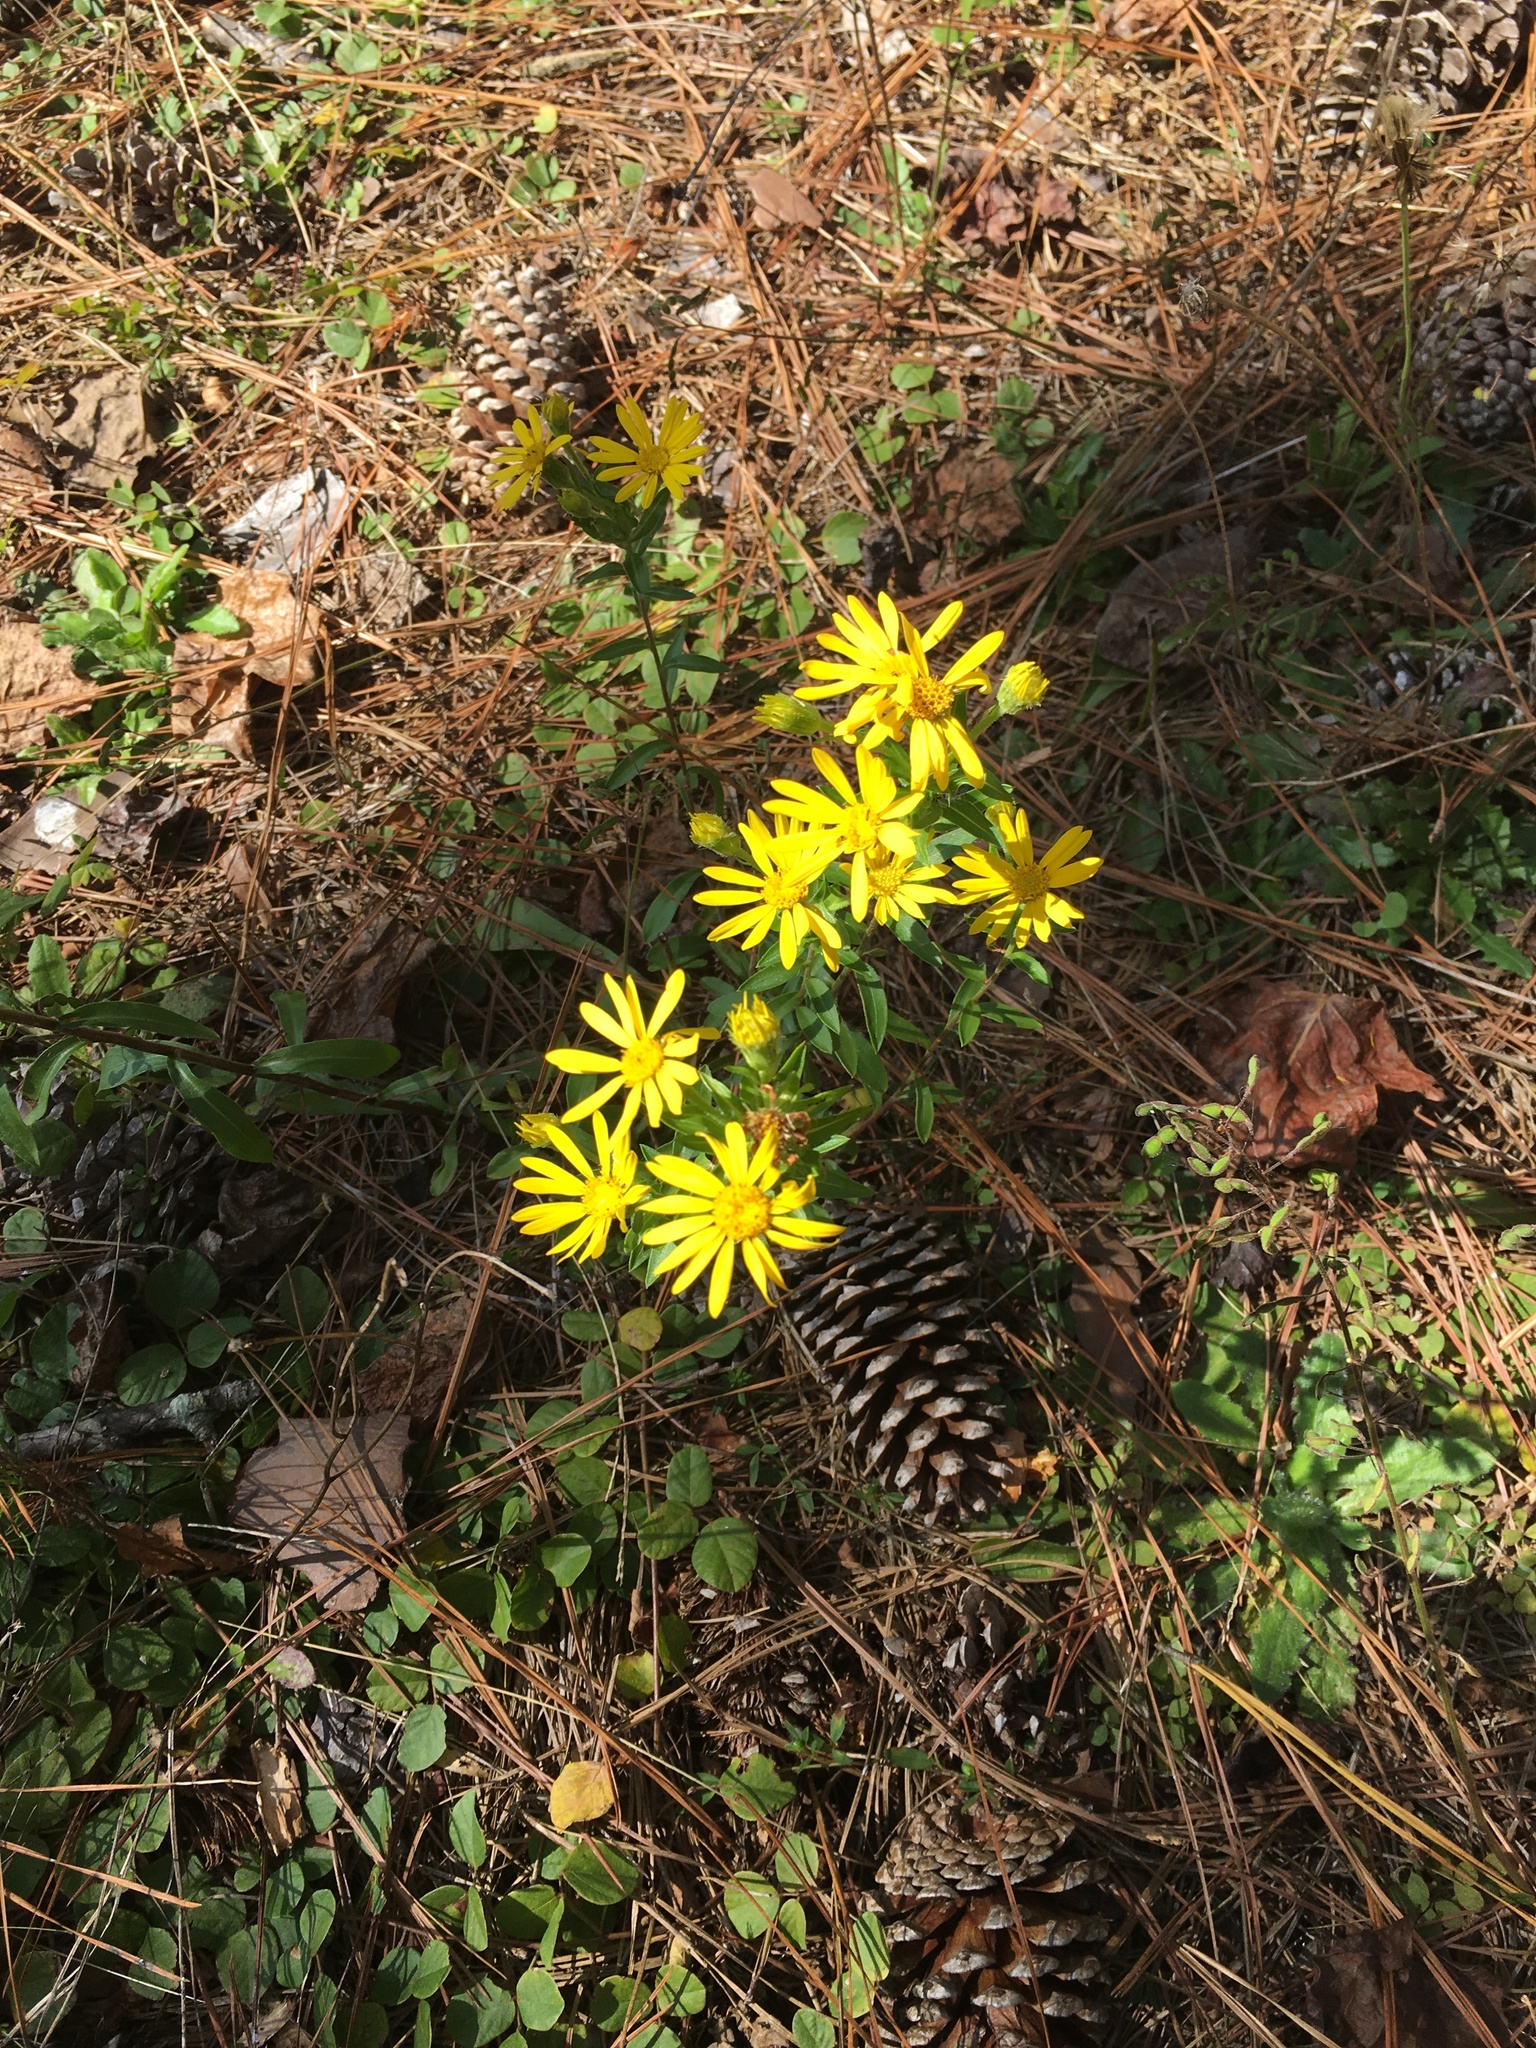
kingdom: Plantae
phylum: Tracheophyta
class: Magnoliopsida
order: Asterales
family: Asteraceae
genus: Chrysopsis
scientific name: Chrysopsis mariana
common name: Maryland golden-aster
